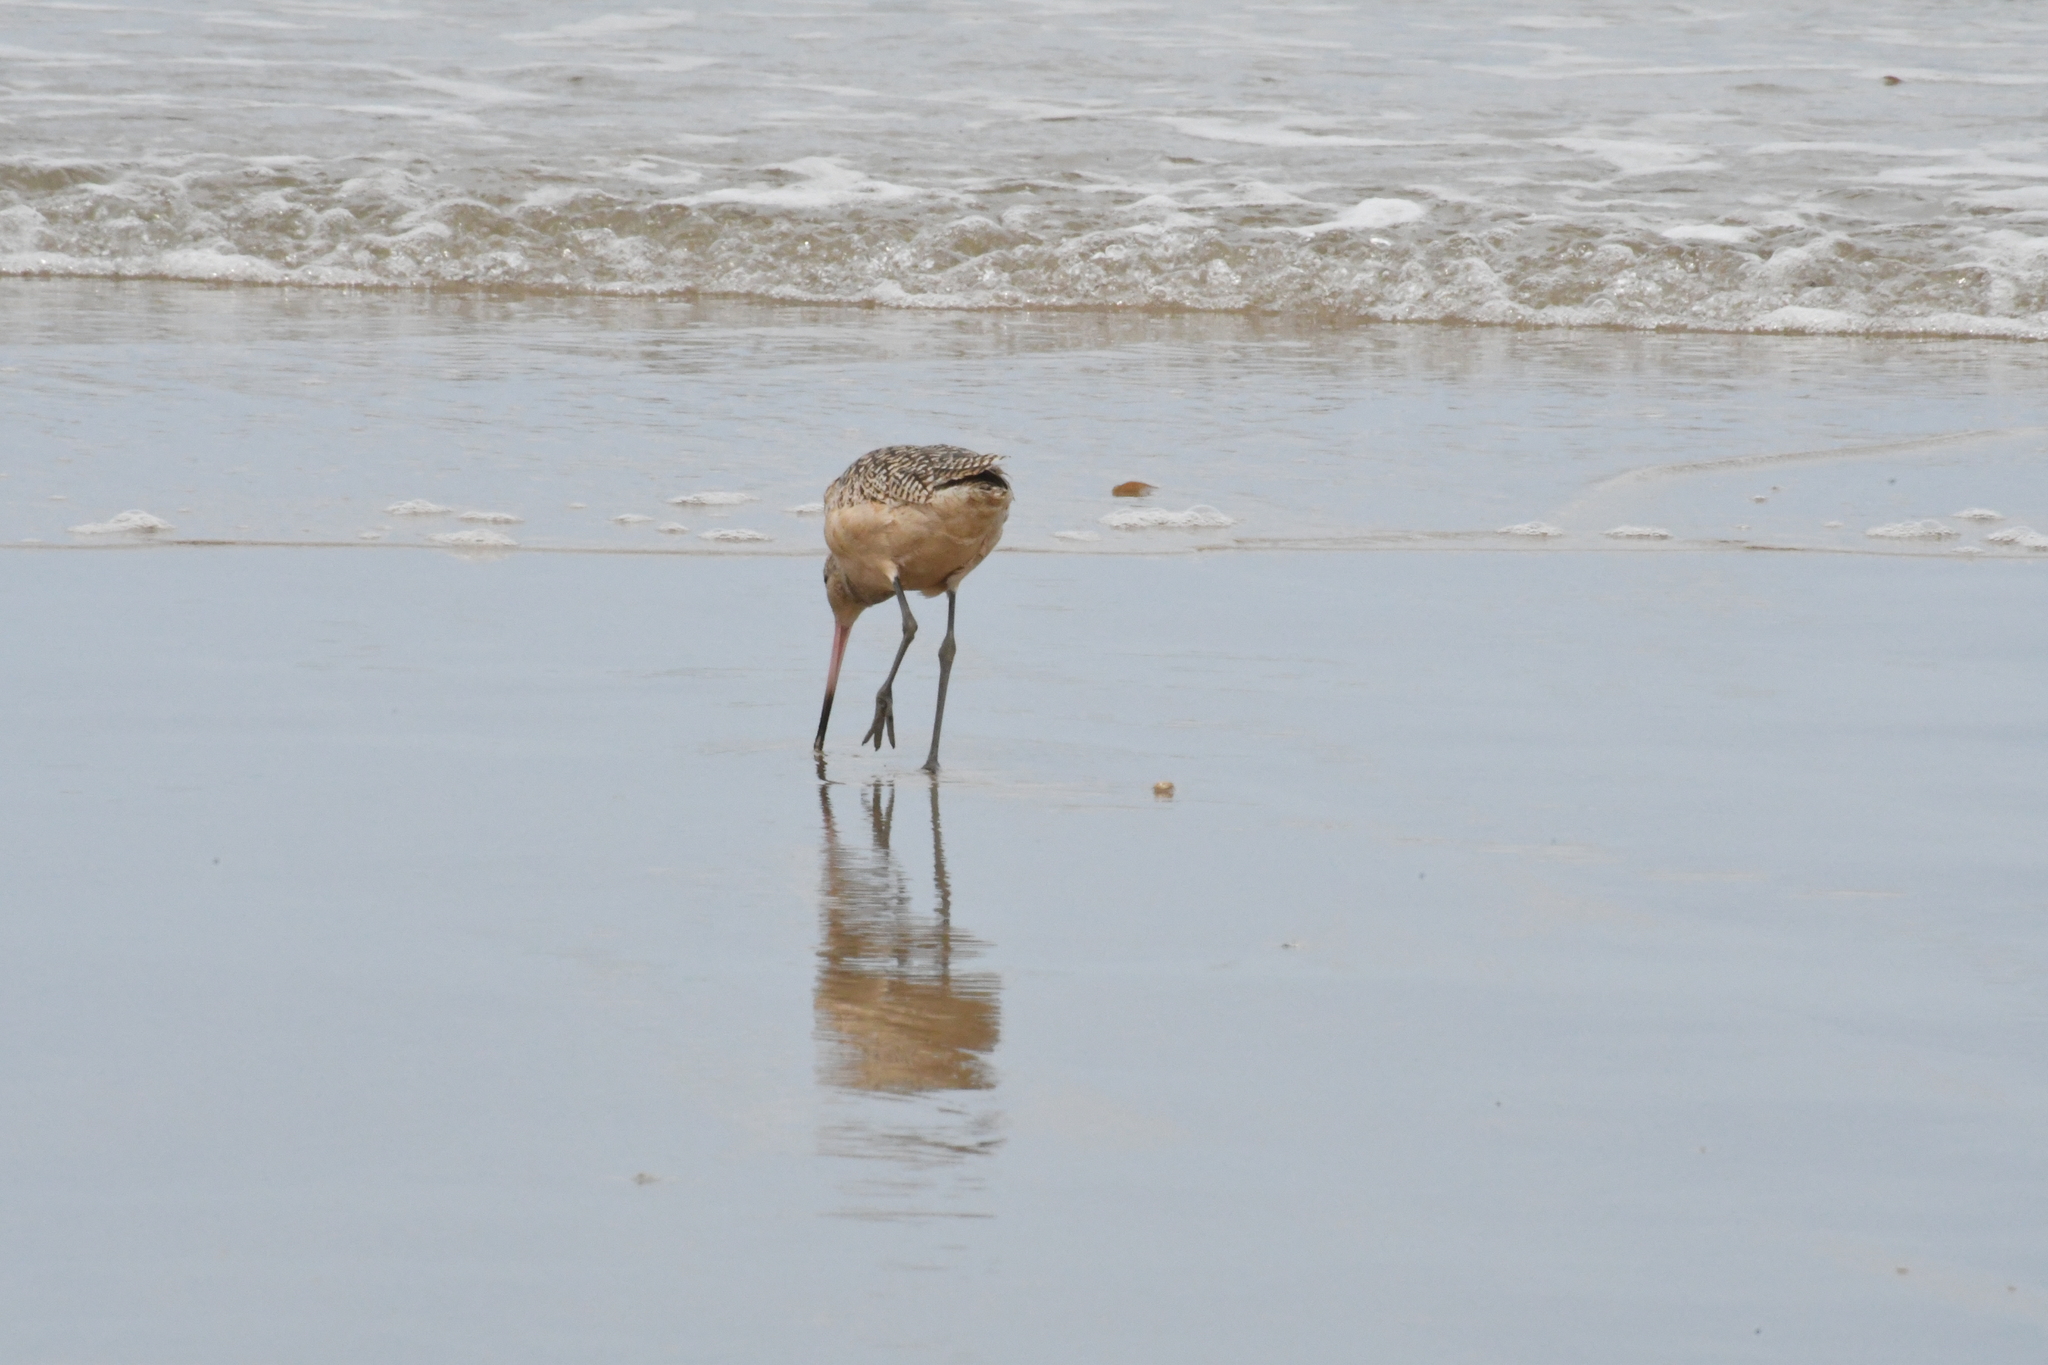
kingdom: Animalia
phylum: Chordata
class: Aves
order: Charadriiformes
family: Scolopacidae
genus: Limosa
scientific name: Limosa fedoa
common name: Marbled godwit
